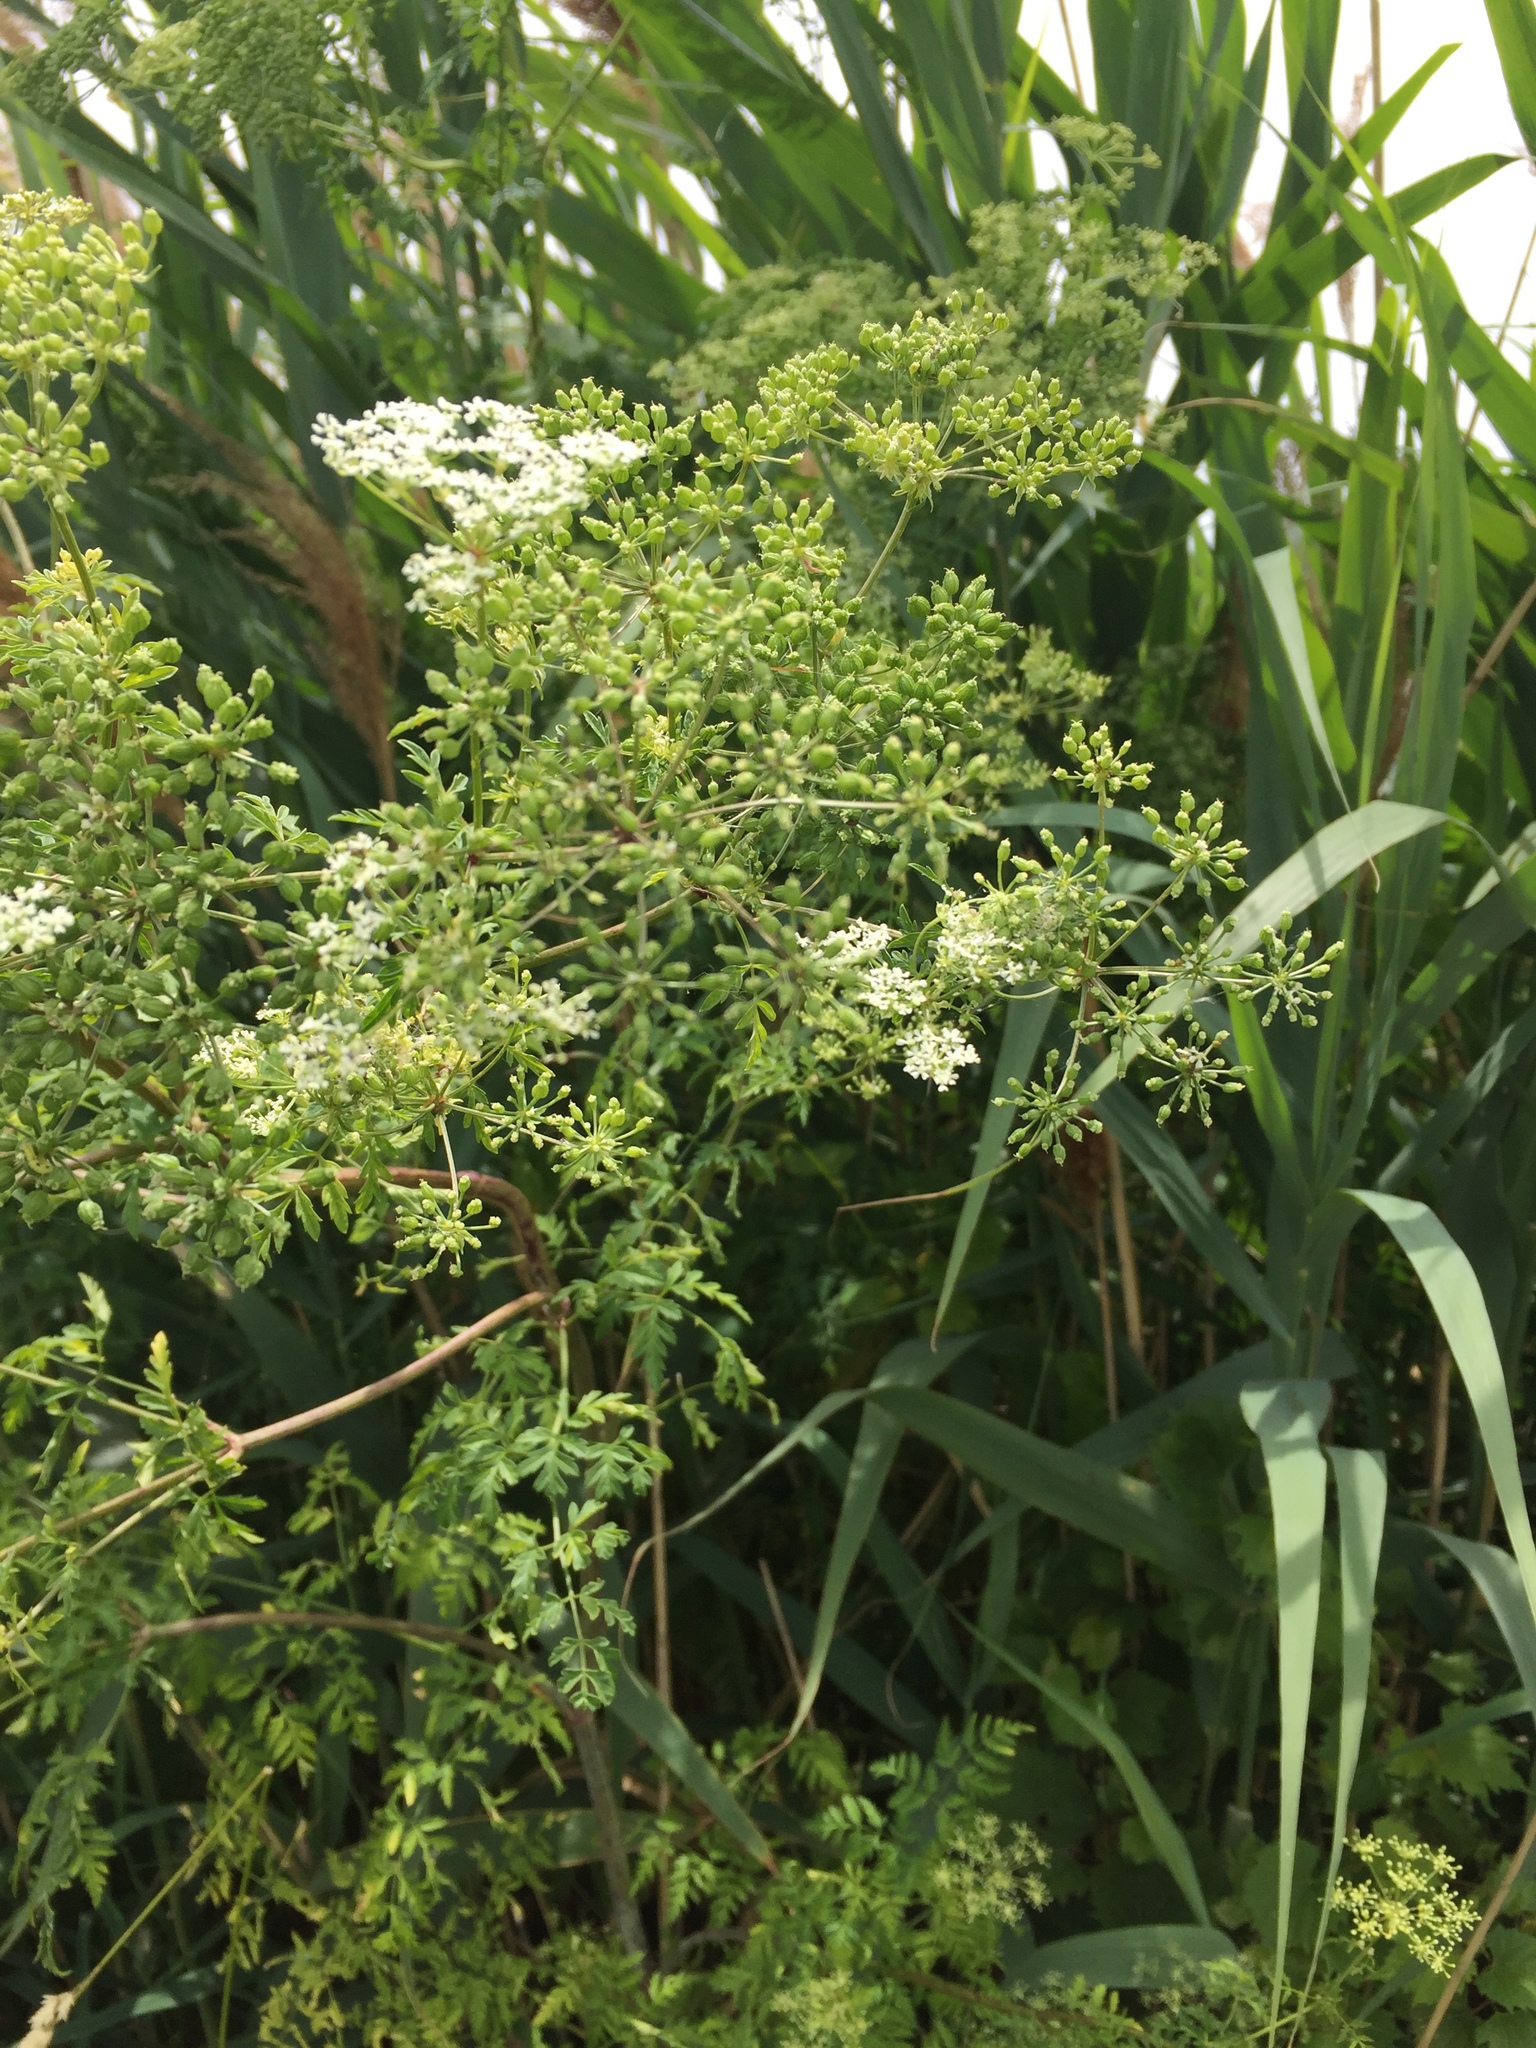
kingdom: Plantae
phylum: Tracheophyta
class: Magnoliopsida
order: Apiales
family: Apiaceae
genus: Conium
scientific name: Conium maculatum
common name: Hemlock
